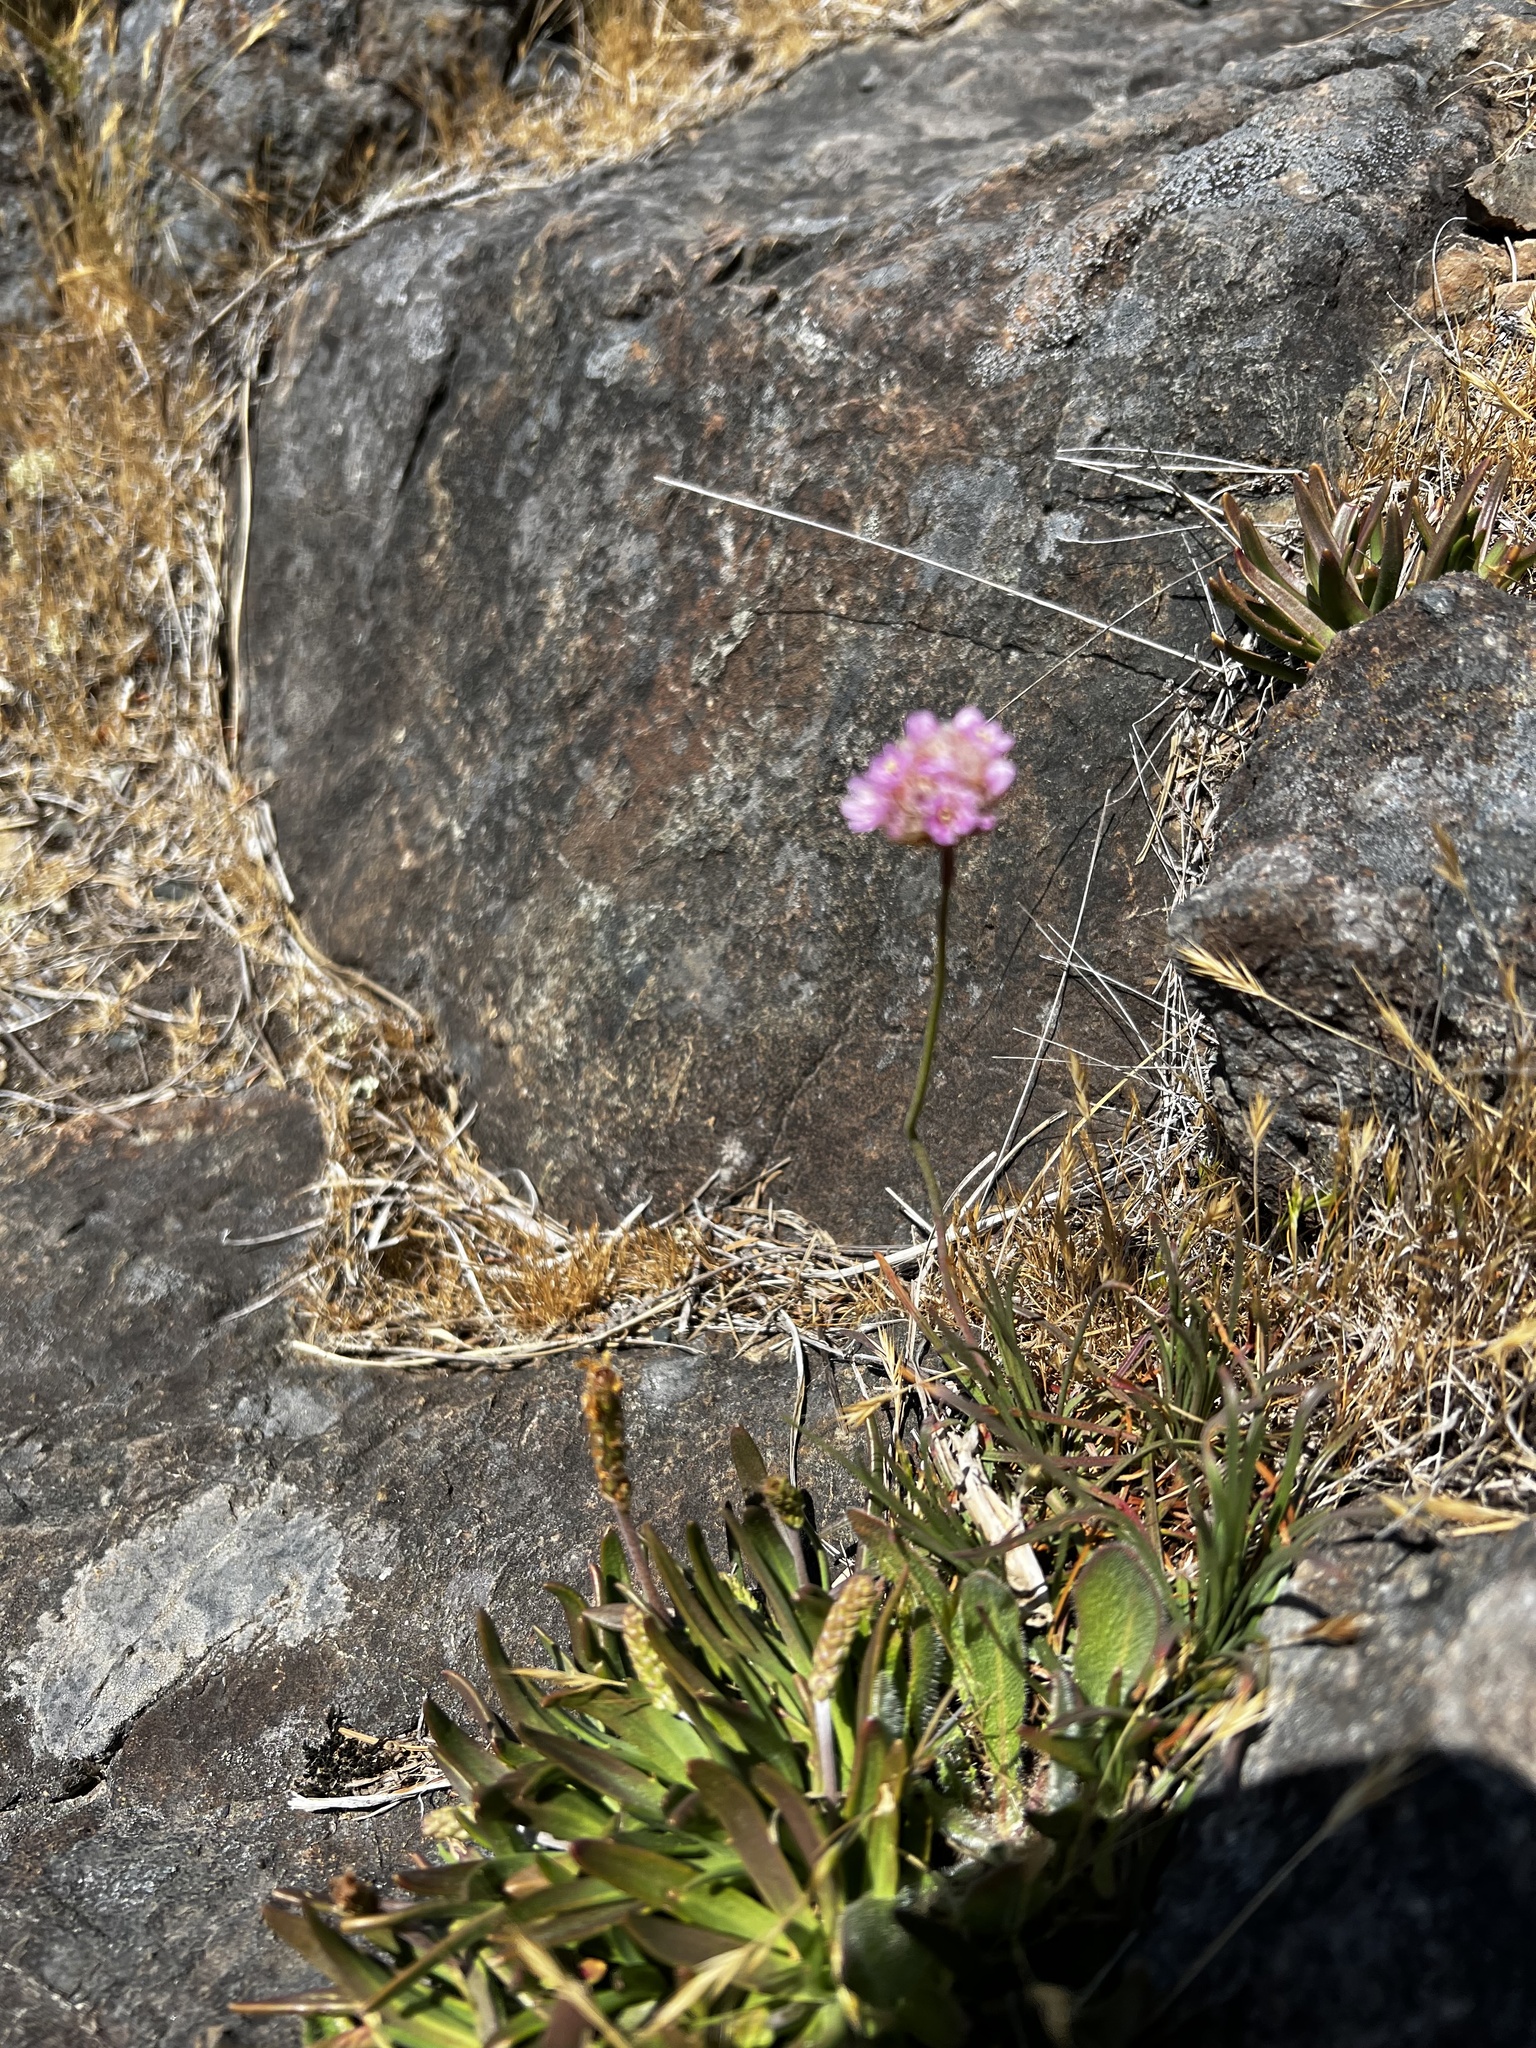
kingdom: Plantae
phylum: Tracheophyta
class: Magnoliopsida
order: Caryophyllales
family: Plumbaginaceae
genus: Armeria
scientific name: Armeria maritima
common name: Thrift
